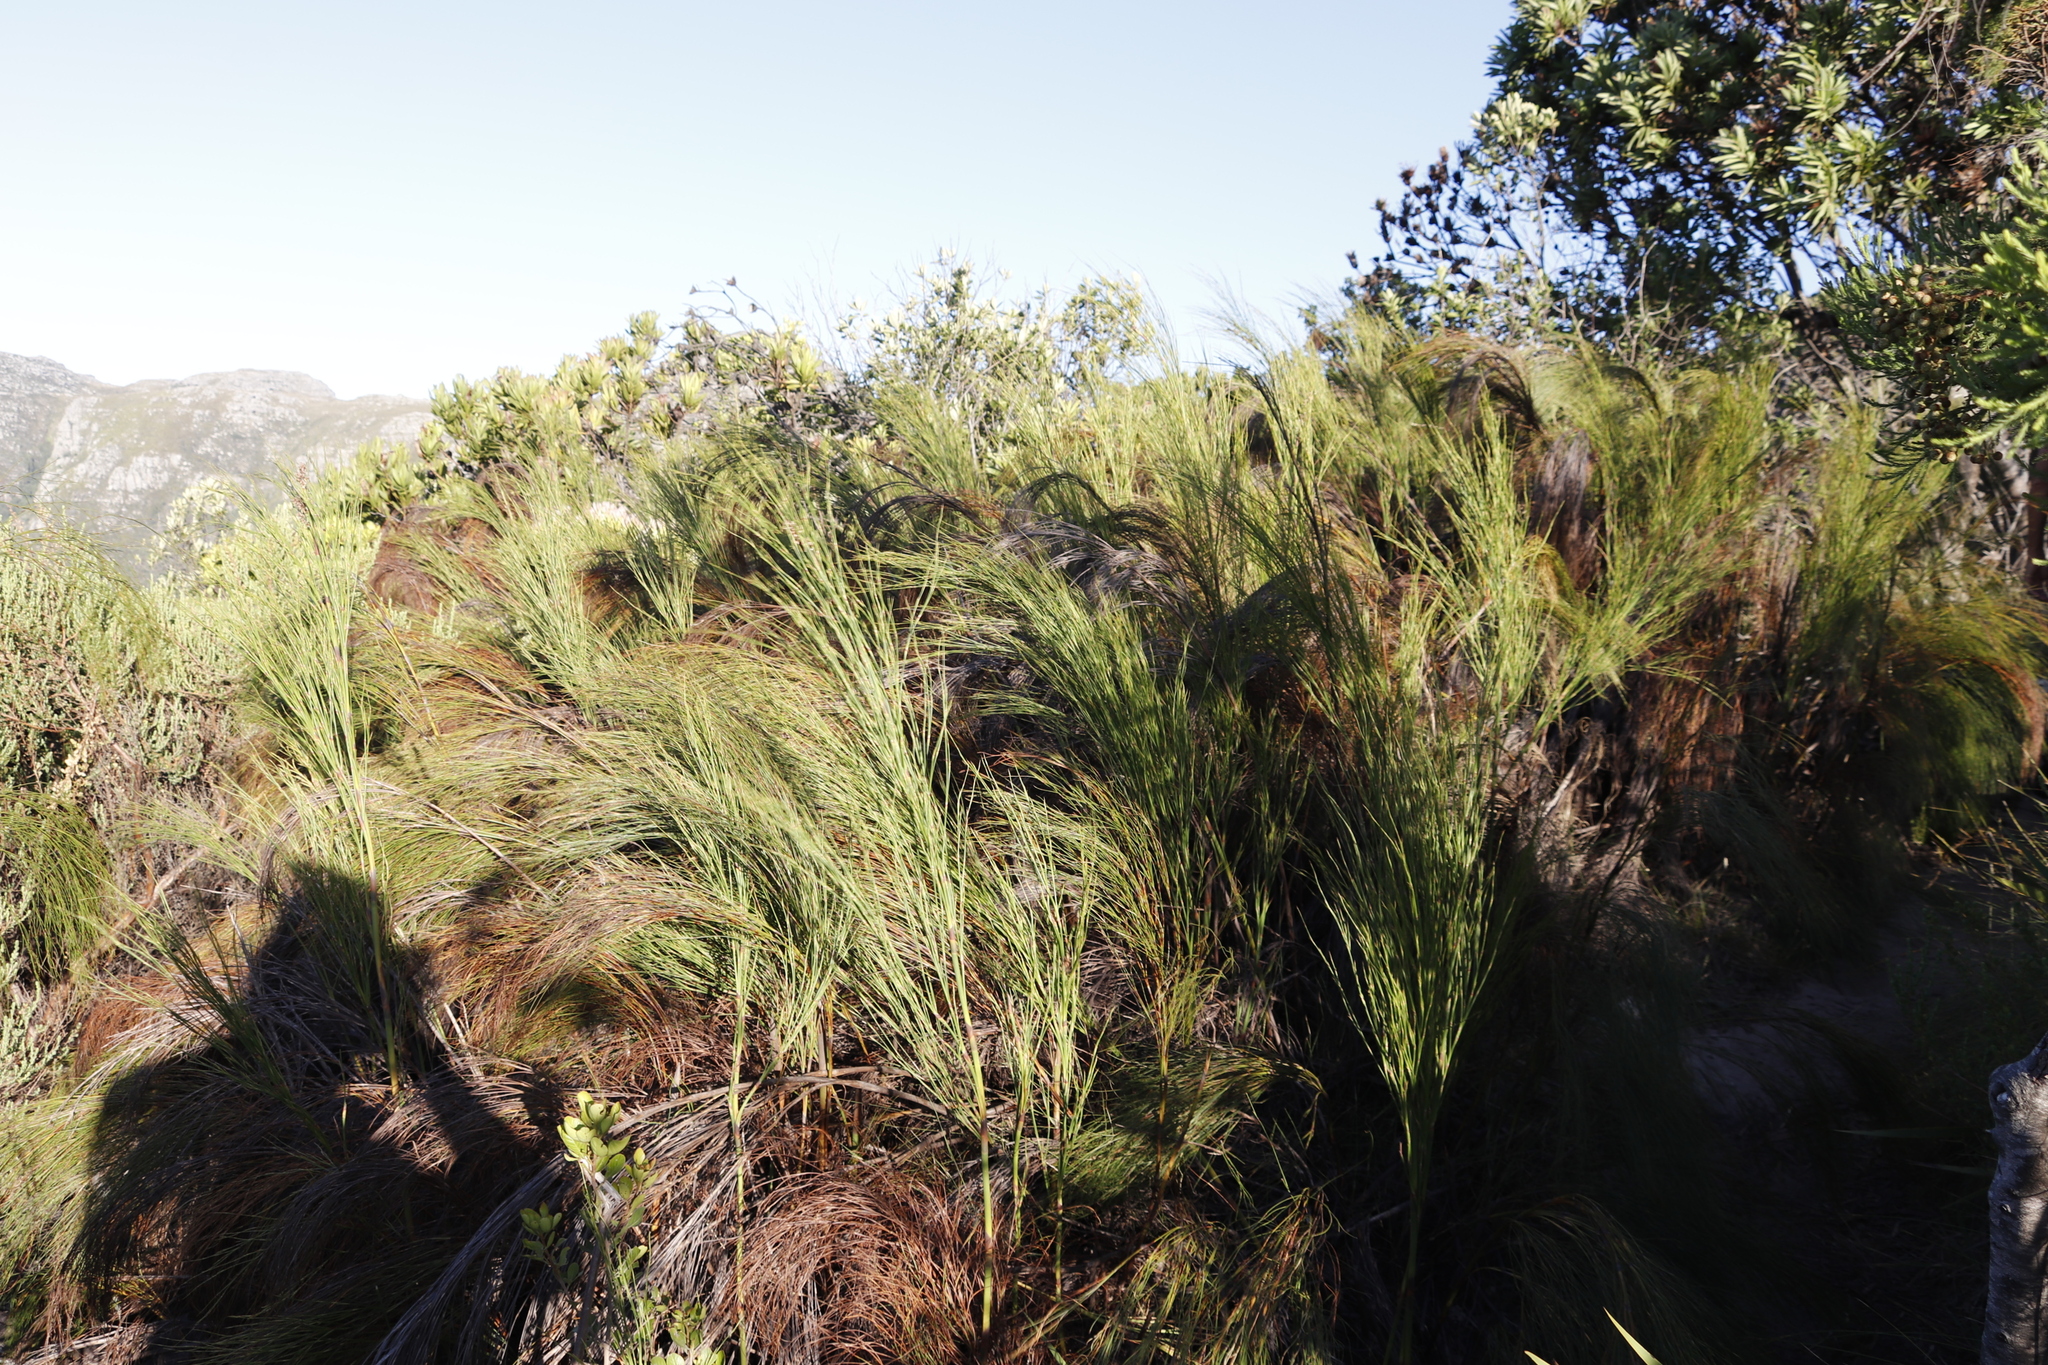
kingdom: Plantae
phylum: Tracheophyta
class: Liliopsida
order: Poales
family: Restionaceae
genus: Cannomois
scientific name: Cannomois virgata
